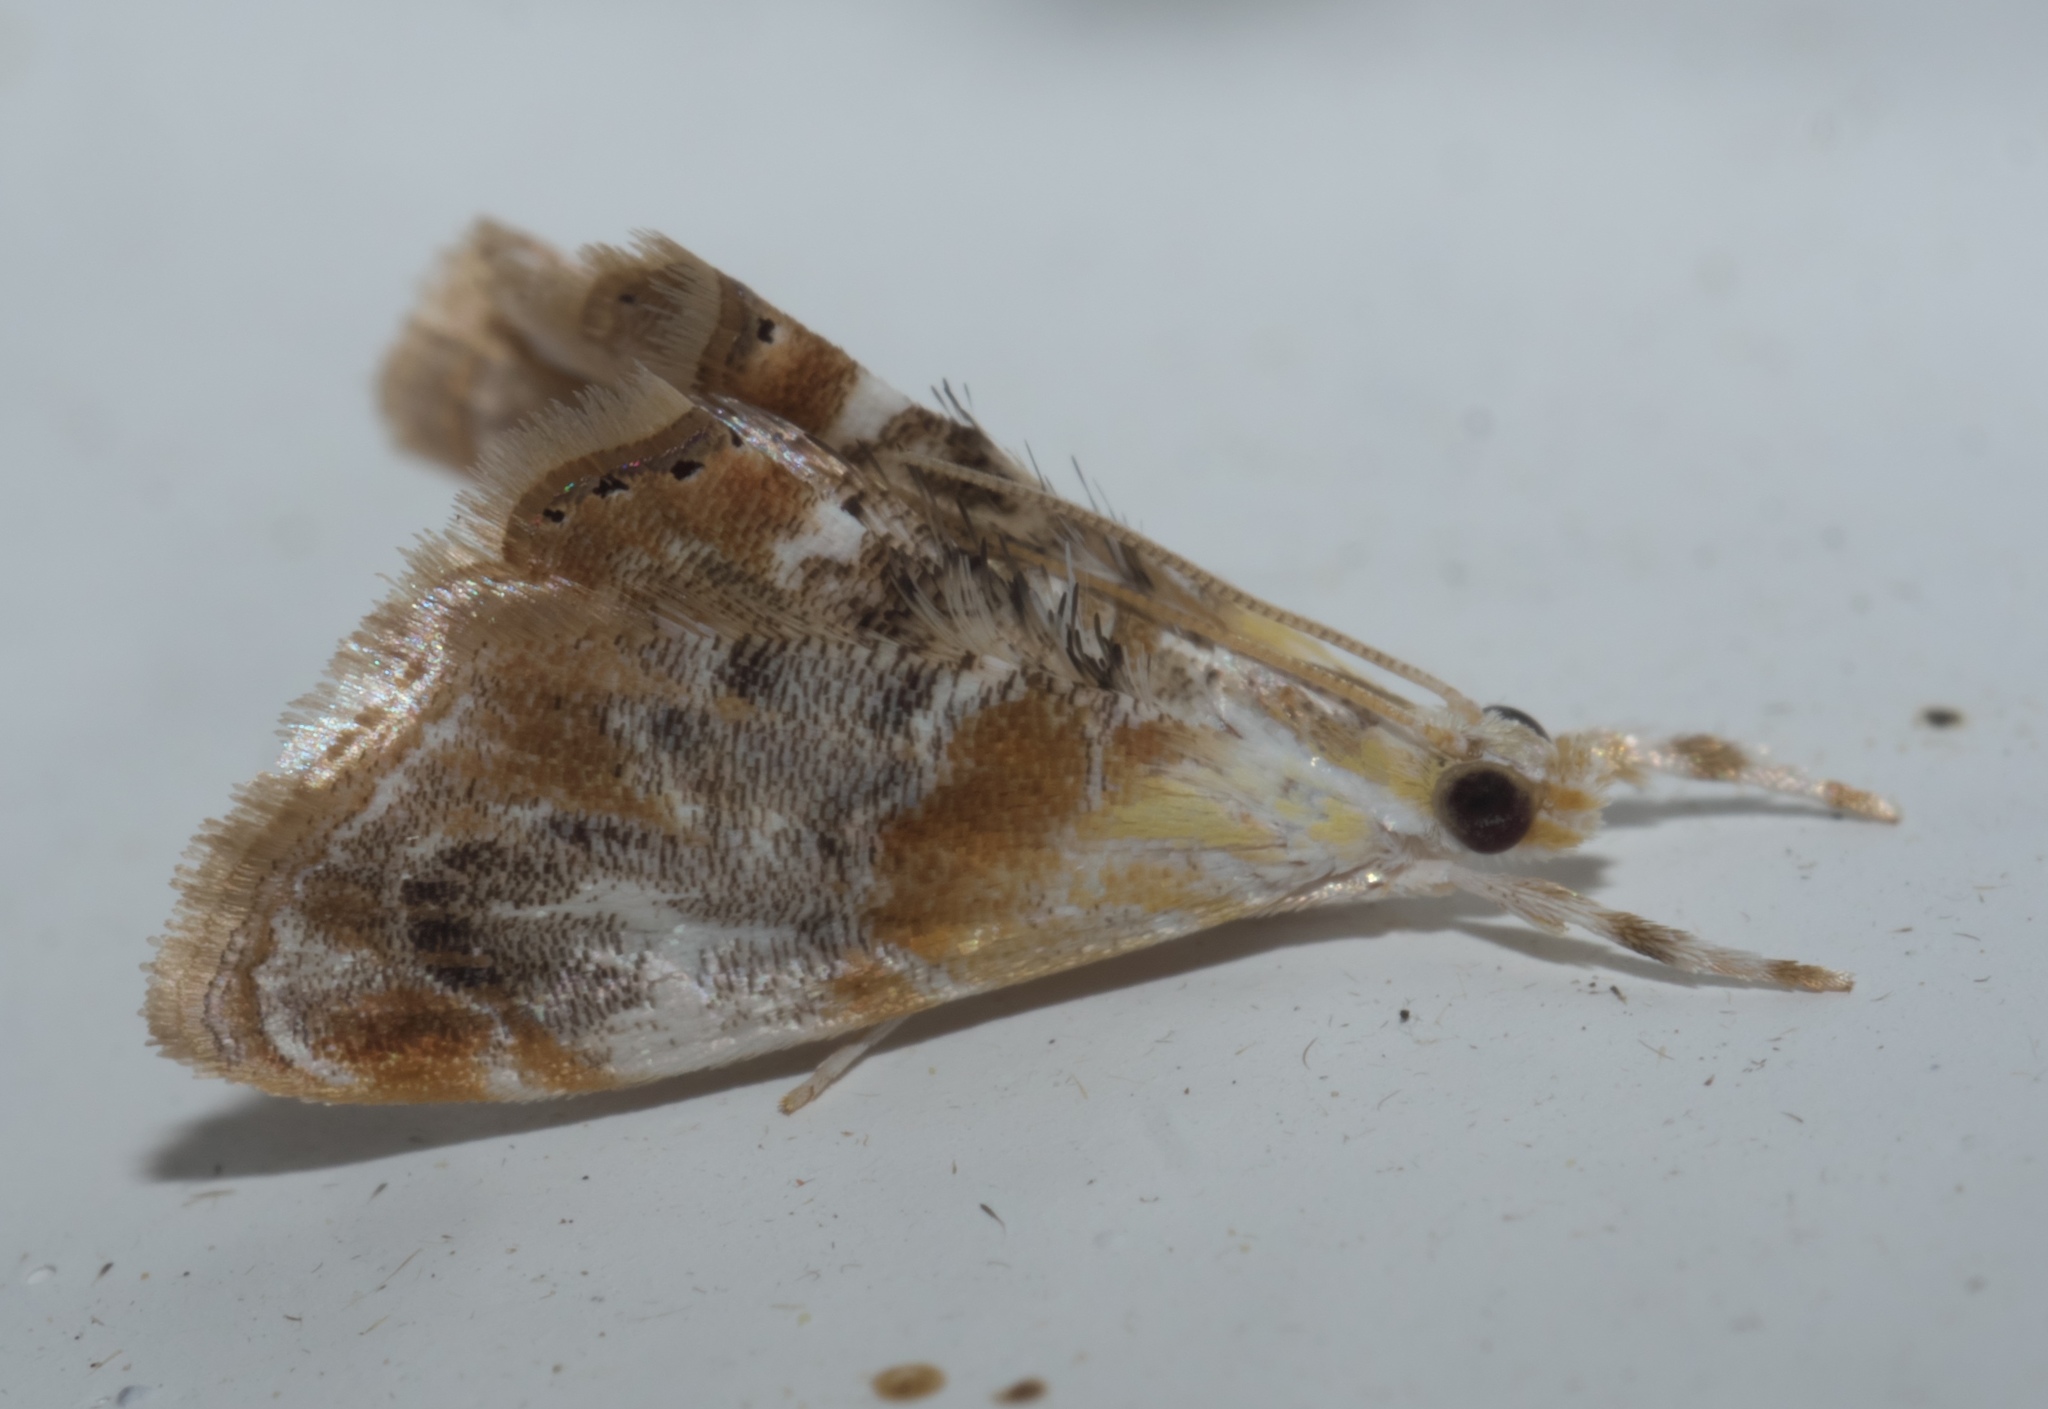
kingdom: Animalia
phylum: Arthropoda
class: Insecta
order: Lepidoptera
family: Crambidae
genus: Dicymolomia
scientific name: Dicymolomia julianalis
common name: Julia's dicymolomia moth
